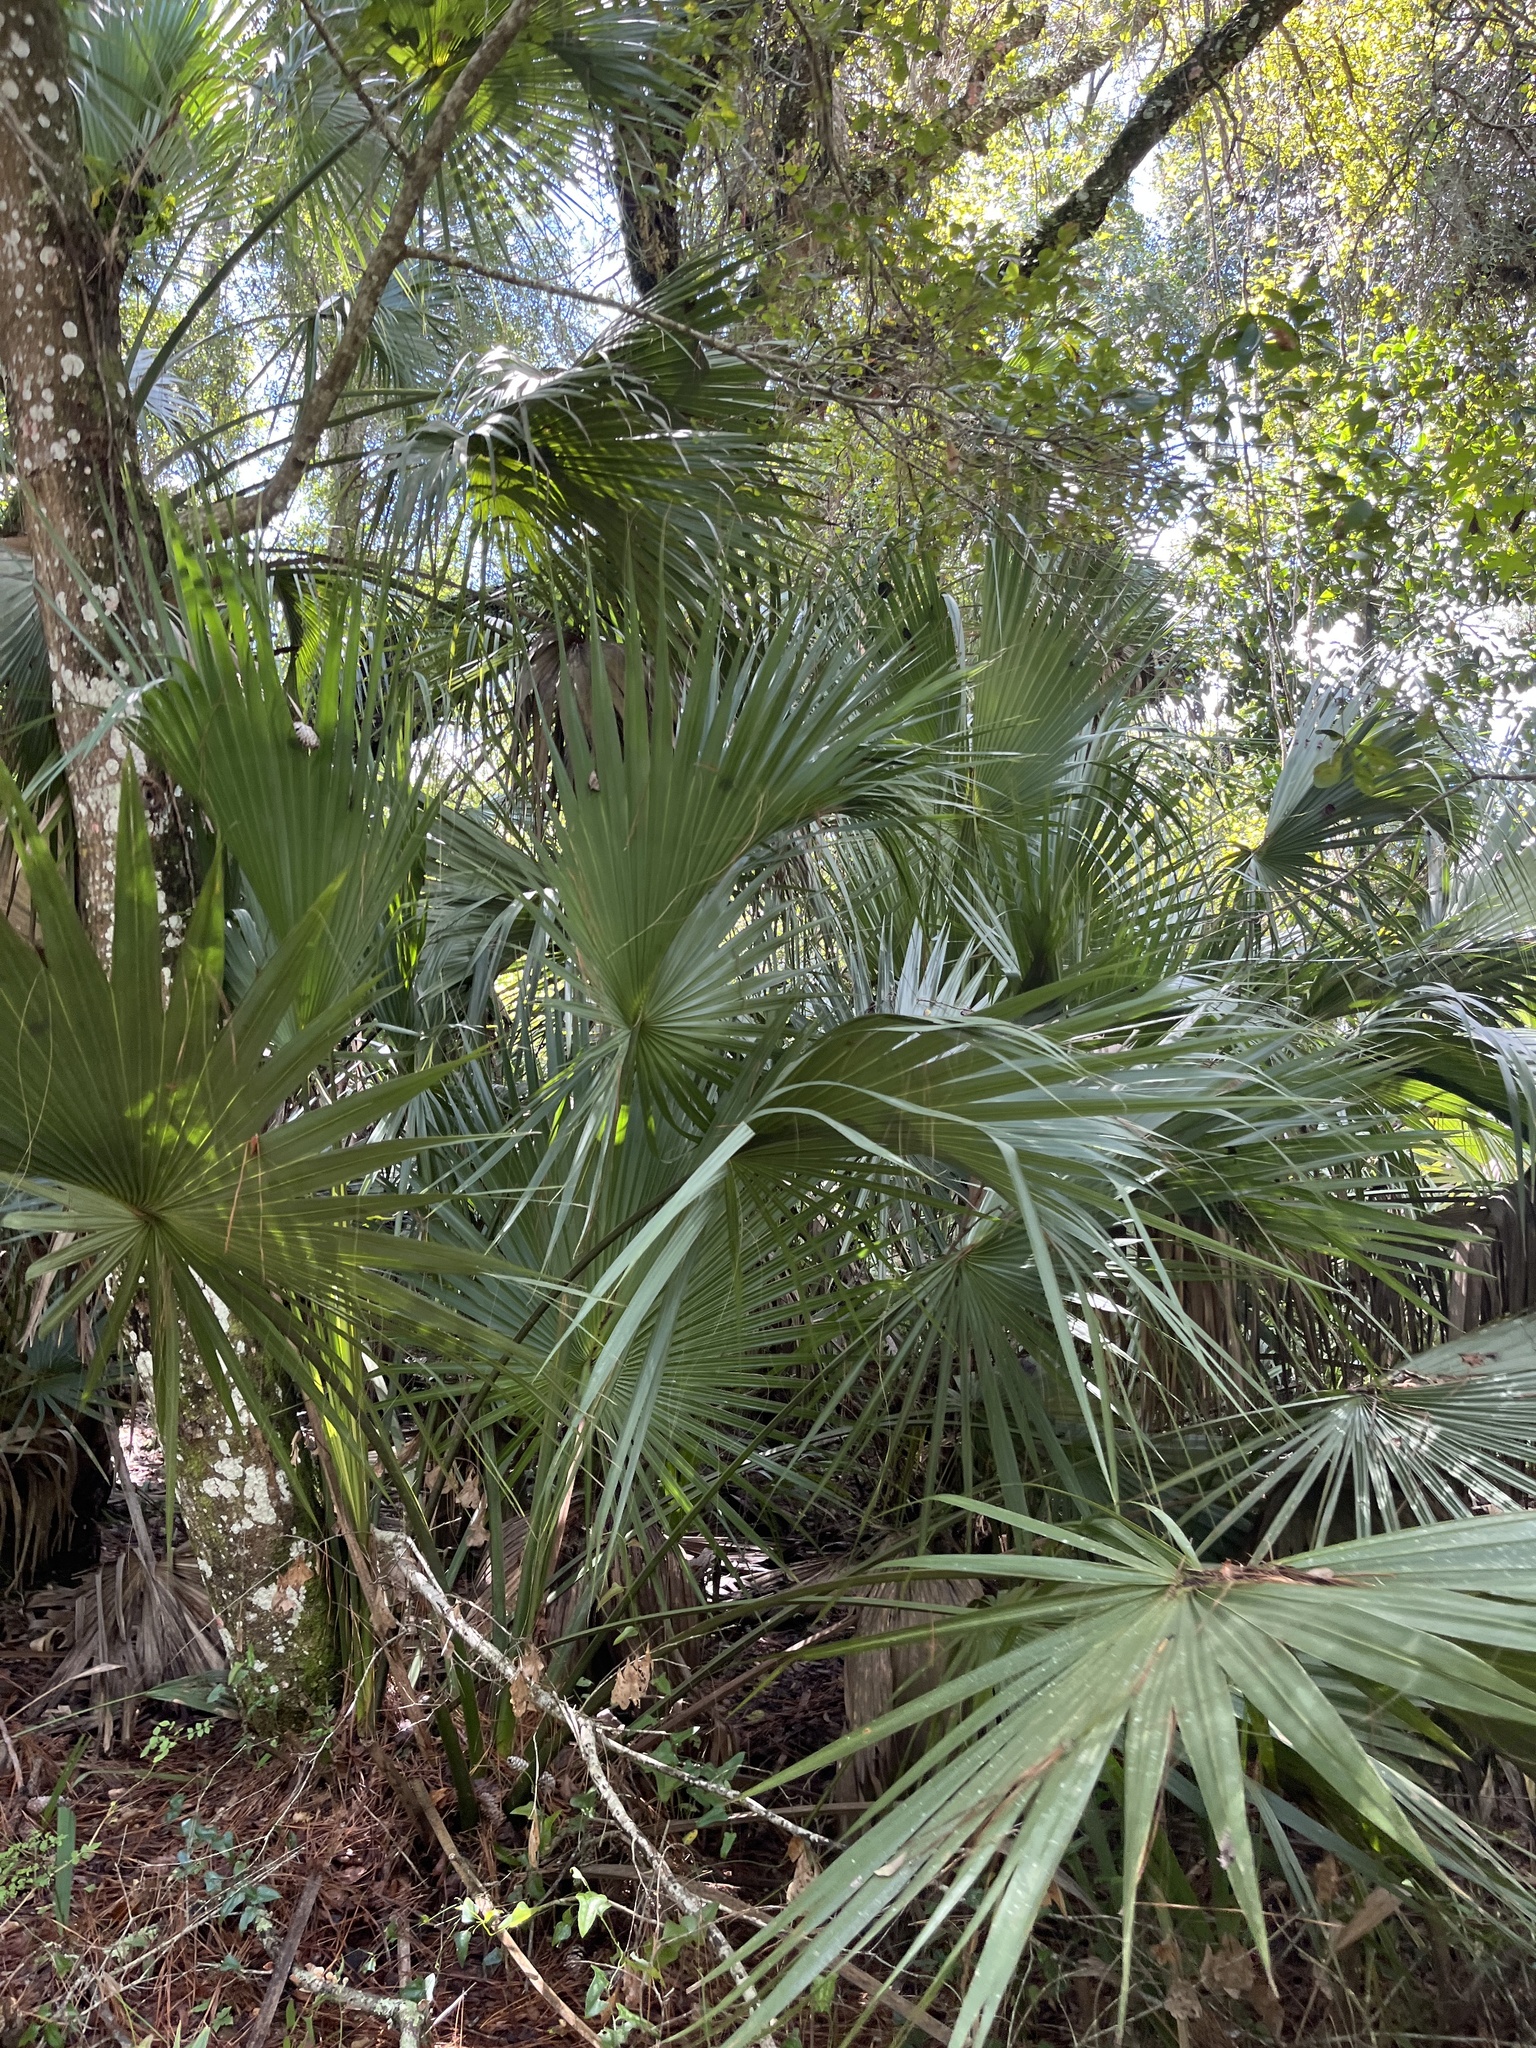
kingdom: Plantae
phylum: Tracheophyta
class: Liliopsida
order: Arecales
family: Arecaceae
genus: Sabal
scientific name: Sabal palmetto
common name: Blue palmetto
